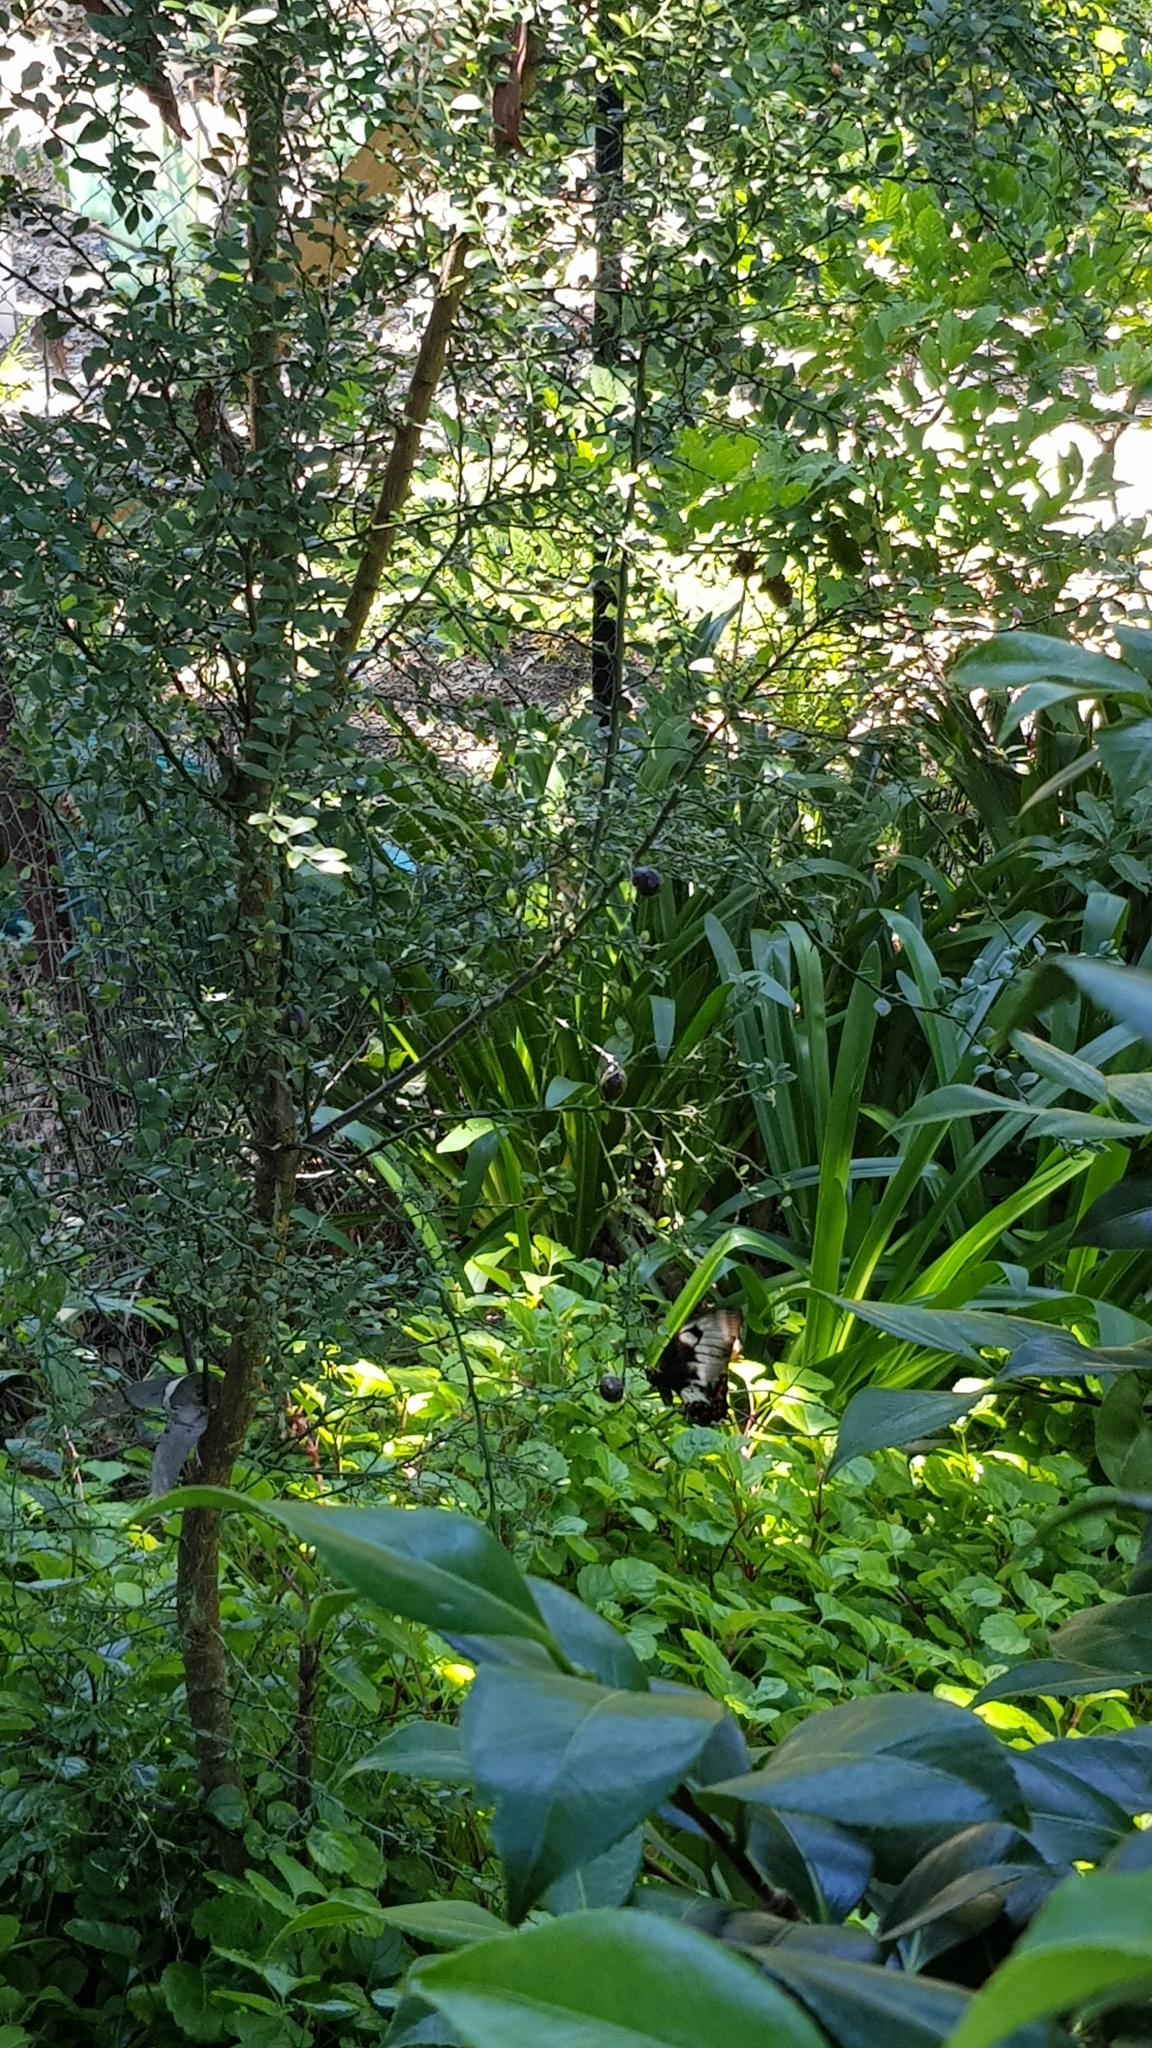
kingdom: Animalia
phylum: Arthropoda
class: Insecta
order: Lepidoptera
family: Papilionidae
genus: Papilio
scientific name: Papilio aegeus
